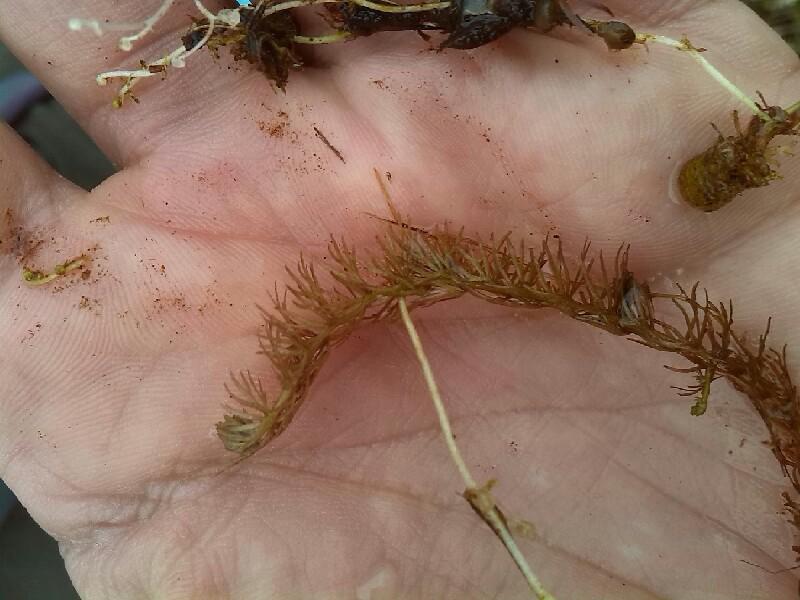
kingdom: Plantae
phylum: Tracheophyta
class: Magnoliopsida
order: Lamiales
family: Lentibulariaceae
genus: Utricularia
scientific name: Utricularia intermedia
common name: Intermediate bladderwort
